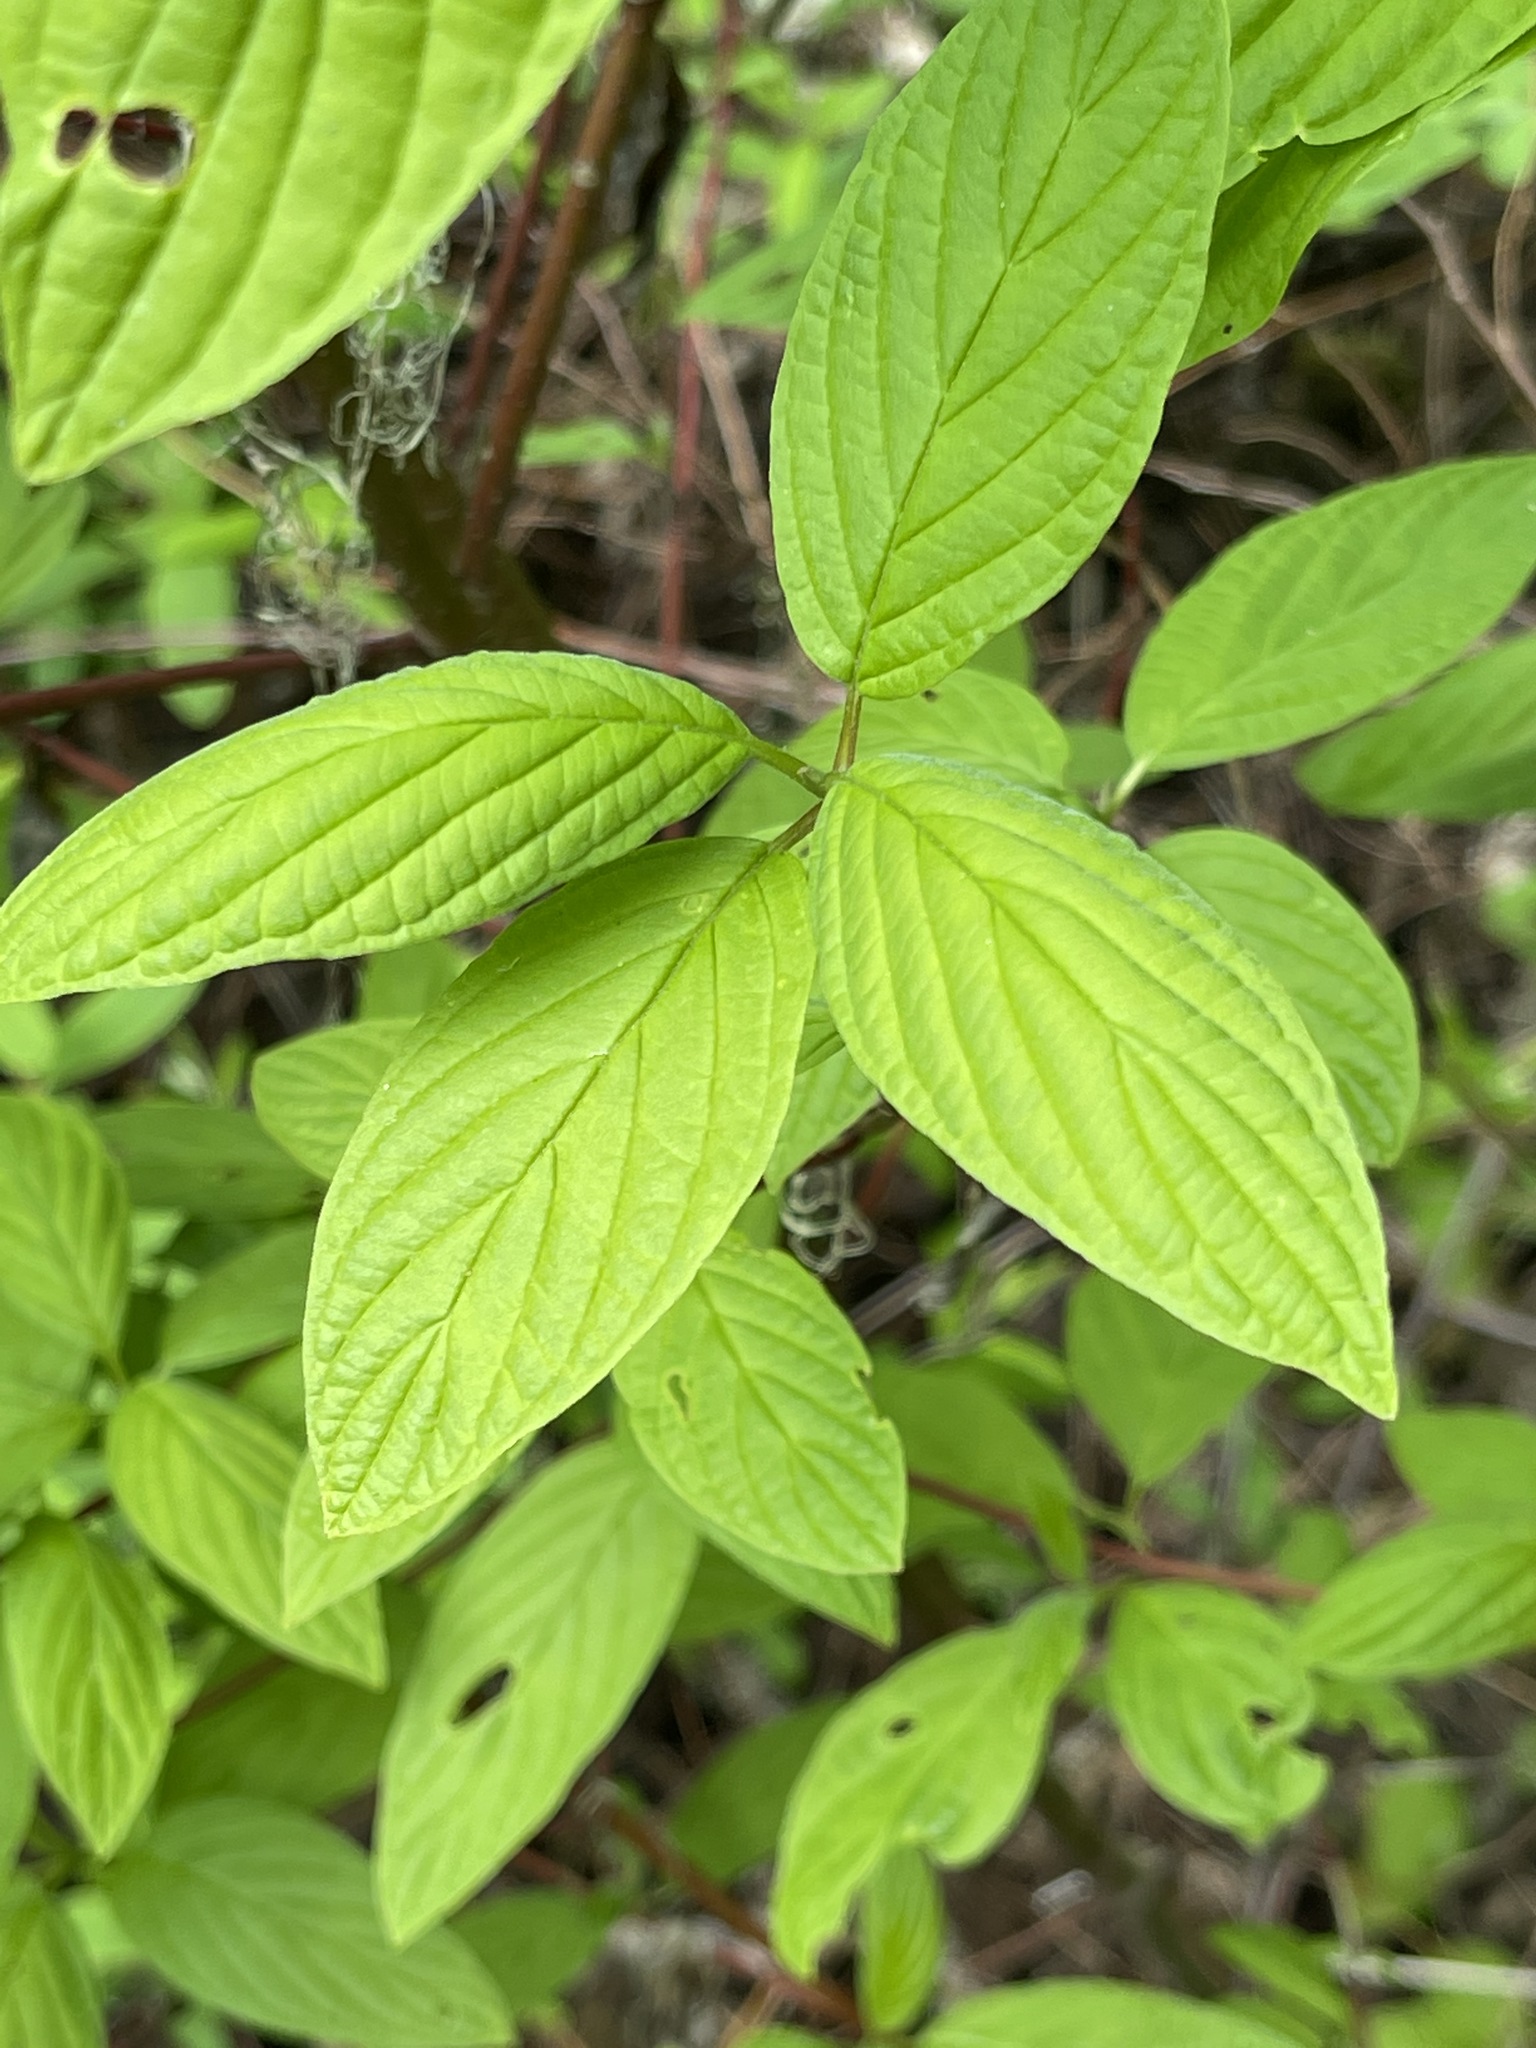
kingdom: Plantae
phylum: Tracheophyta
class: Magnoliopsida
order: Cornales
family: Cornaceae
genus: Cornus
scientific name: Cornus sericea
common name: Red-osier dogwood
